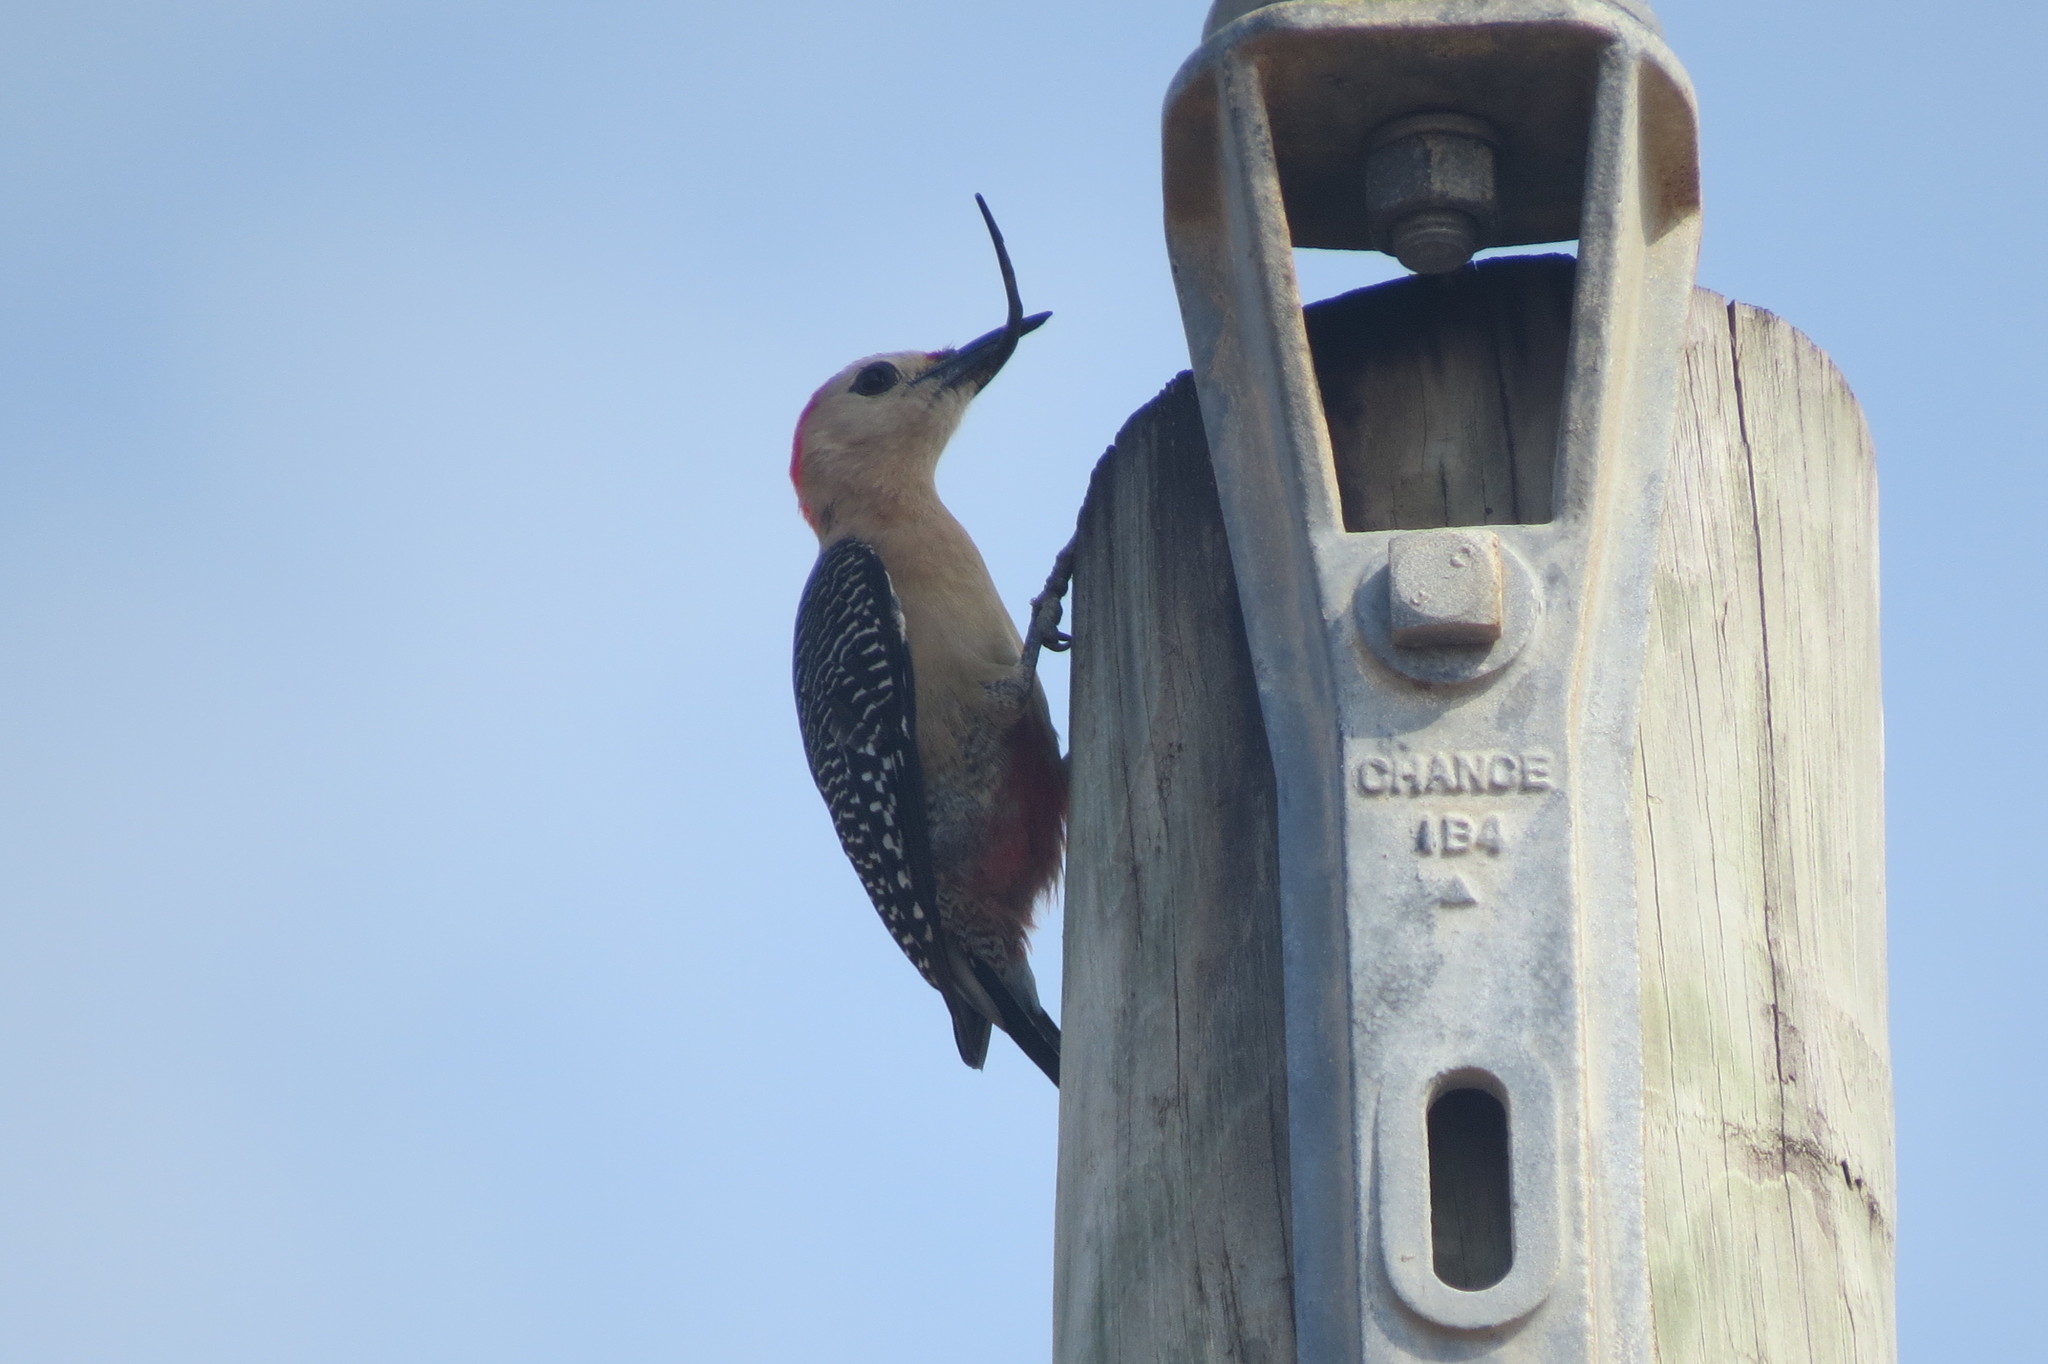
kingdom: Animalia
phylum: Chordata
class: Aves
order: Piciformes
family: Picidae
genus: Melanerpes
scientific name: Melanerpes aurifrons
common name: Golden-fronted woodpecker
